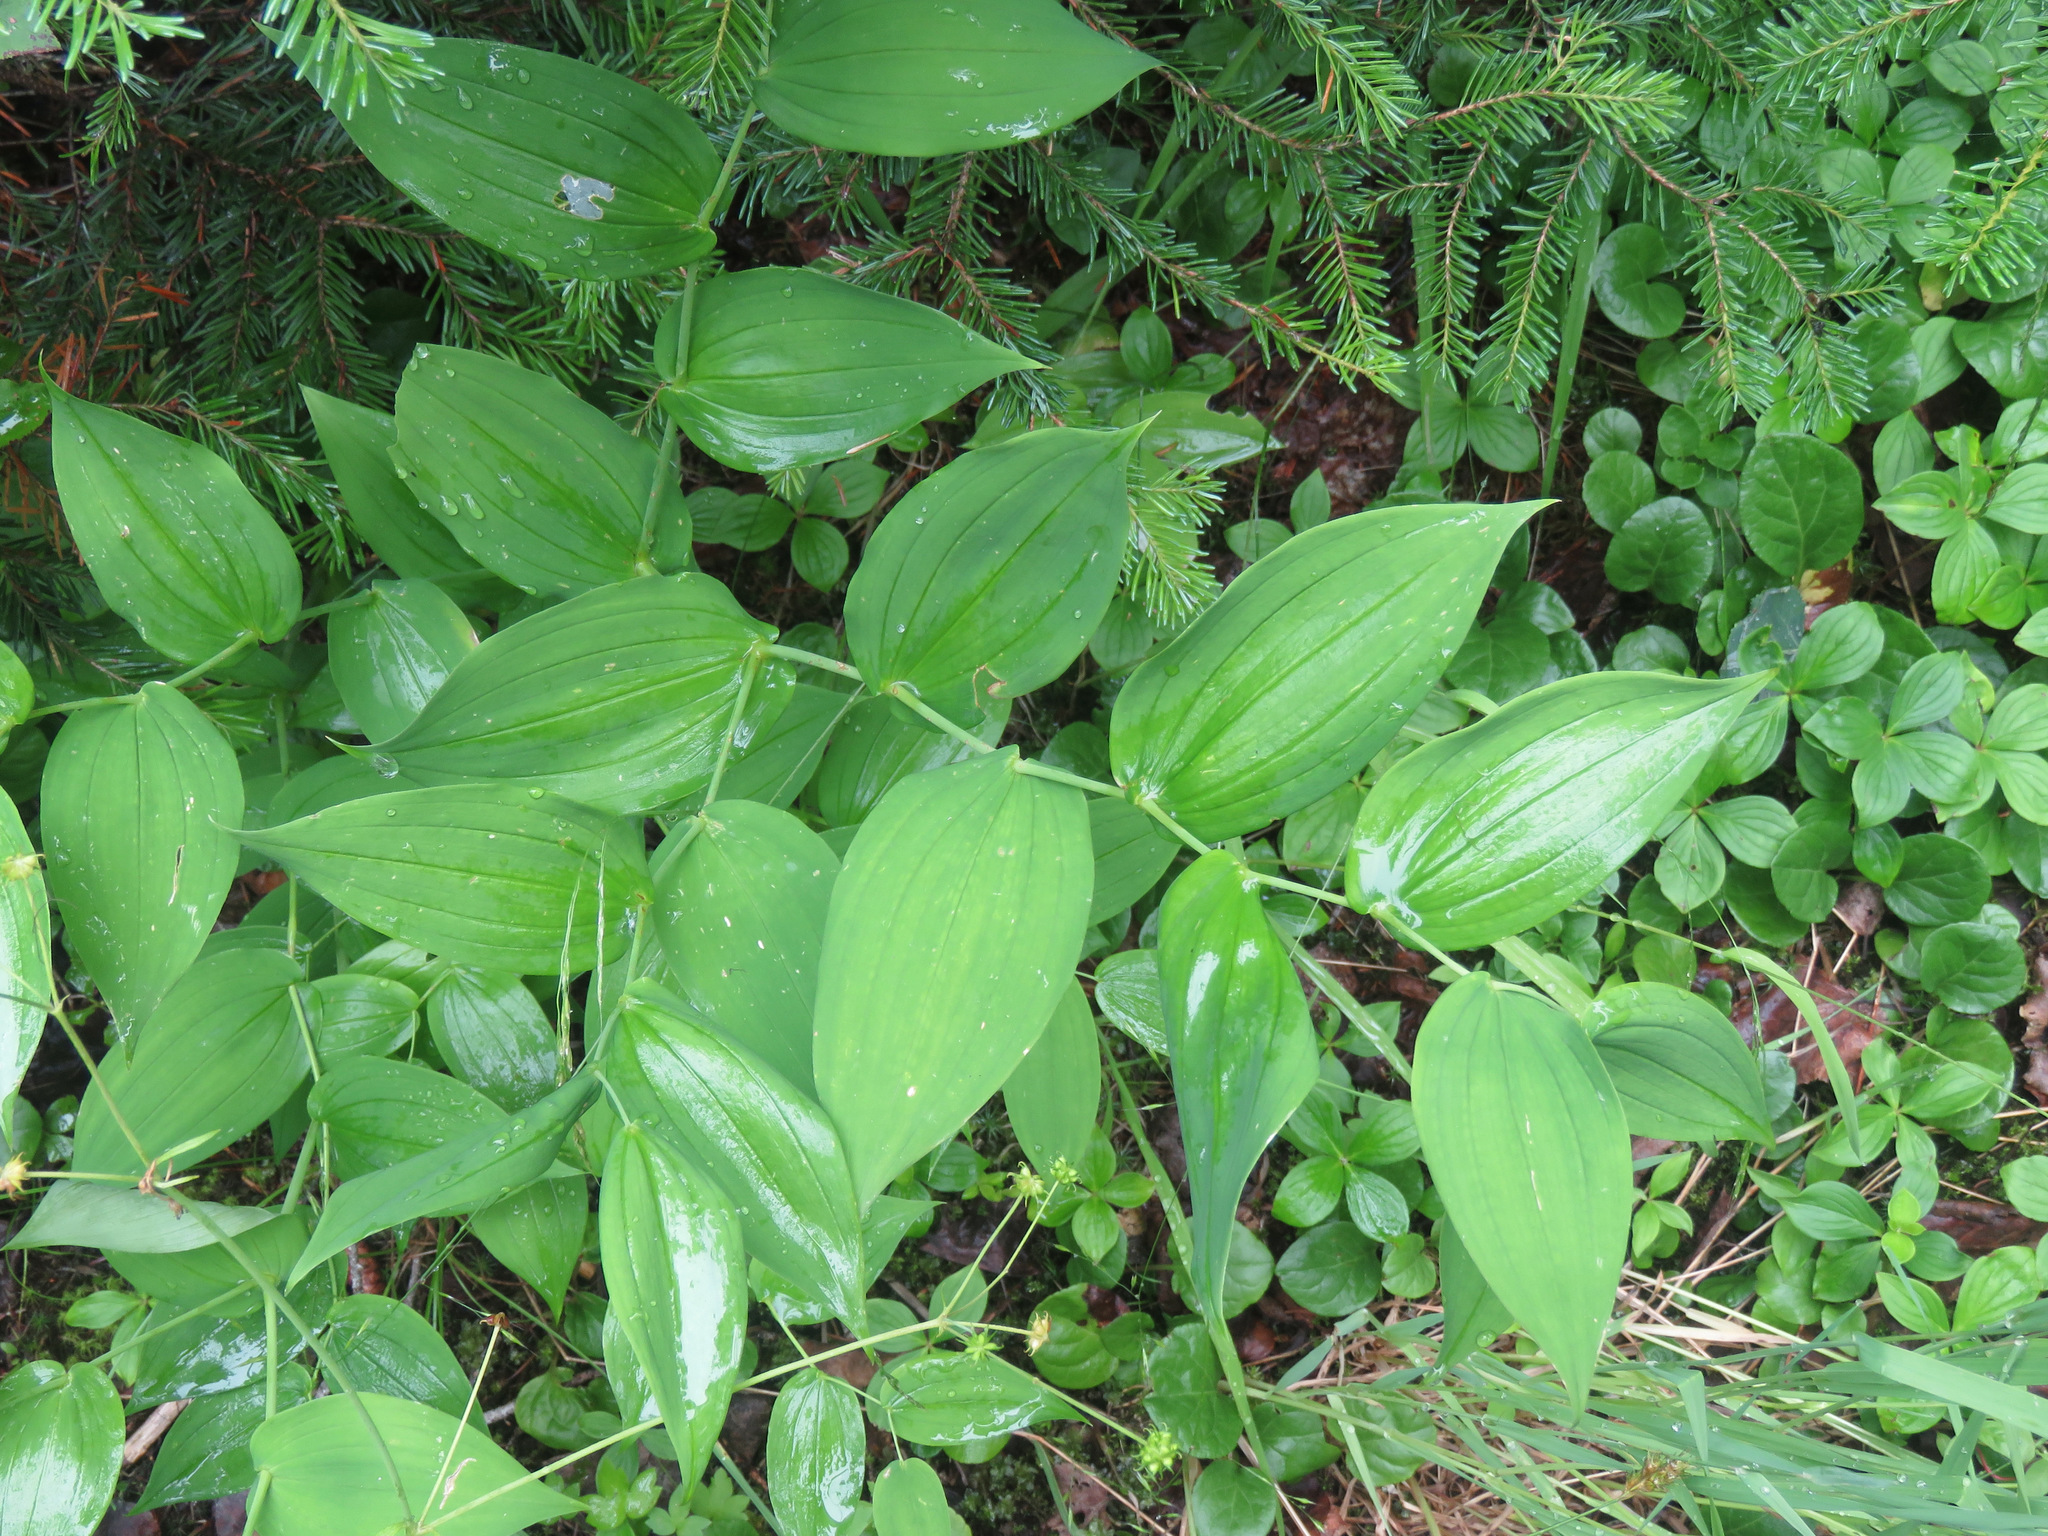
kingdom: Plantae
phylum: Tracheophyta
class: Liliopsida
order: Liliales
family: Liliaceae
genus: Streptopus
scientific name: Streptopus amplexifolius
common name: Clasp twisted stalk
